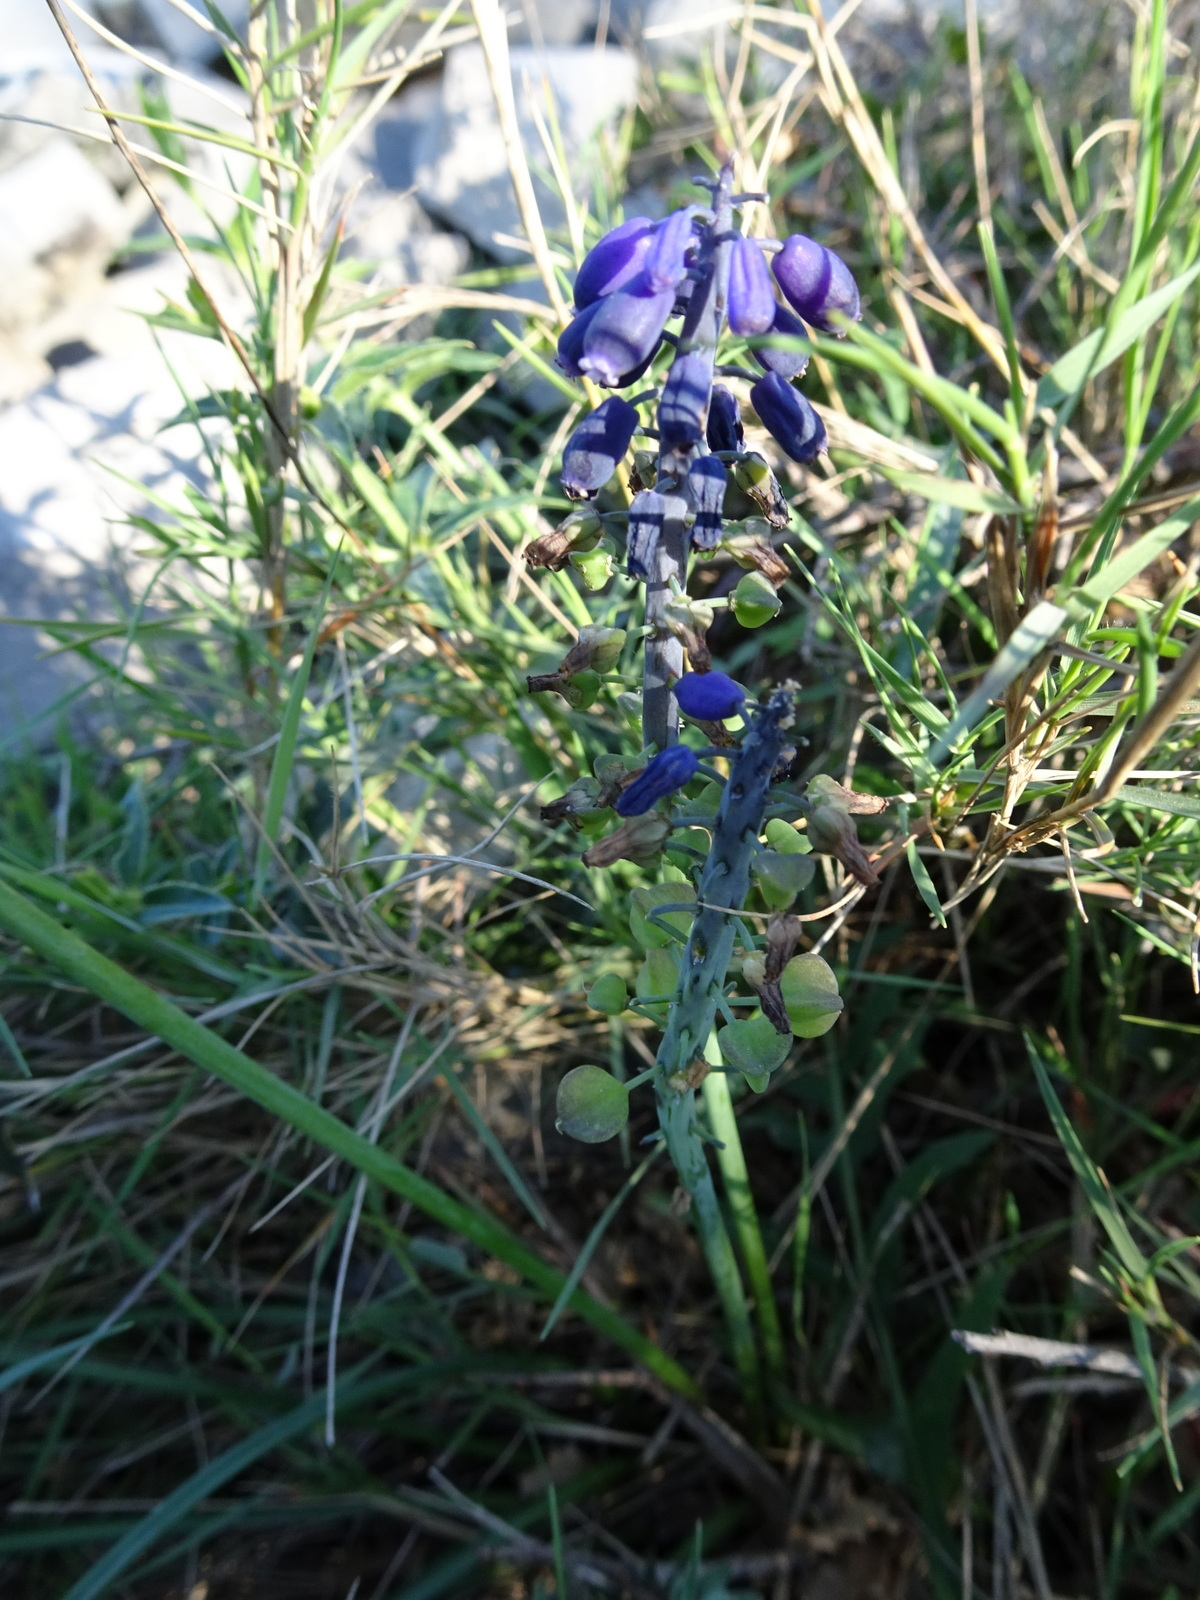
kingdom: Plantae
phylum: Tracheophyta
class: Liliopsida
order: Asparagales
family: Asparagaceae
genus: Muscari
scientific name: Muscari neglectum
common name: Grape-hyacinth
